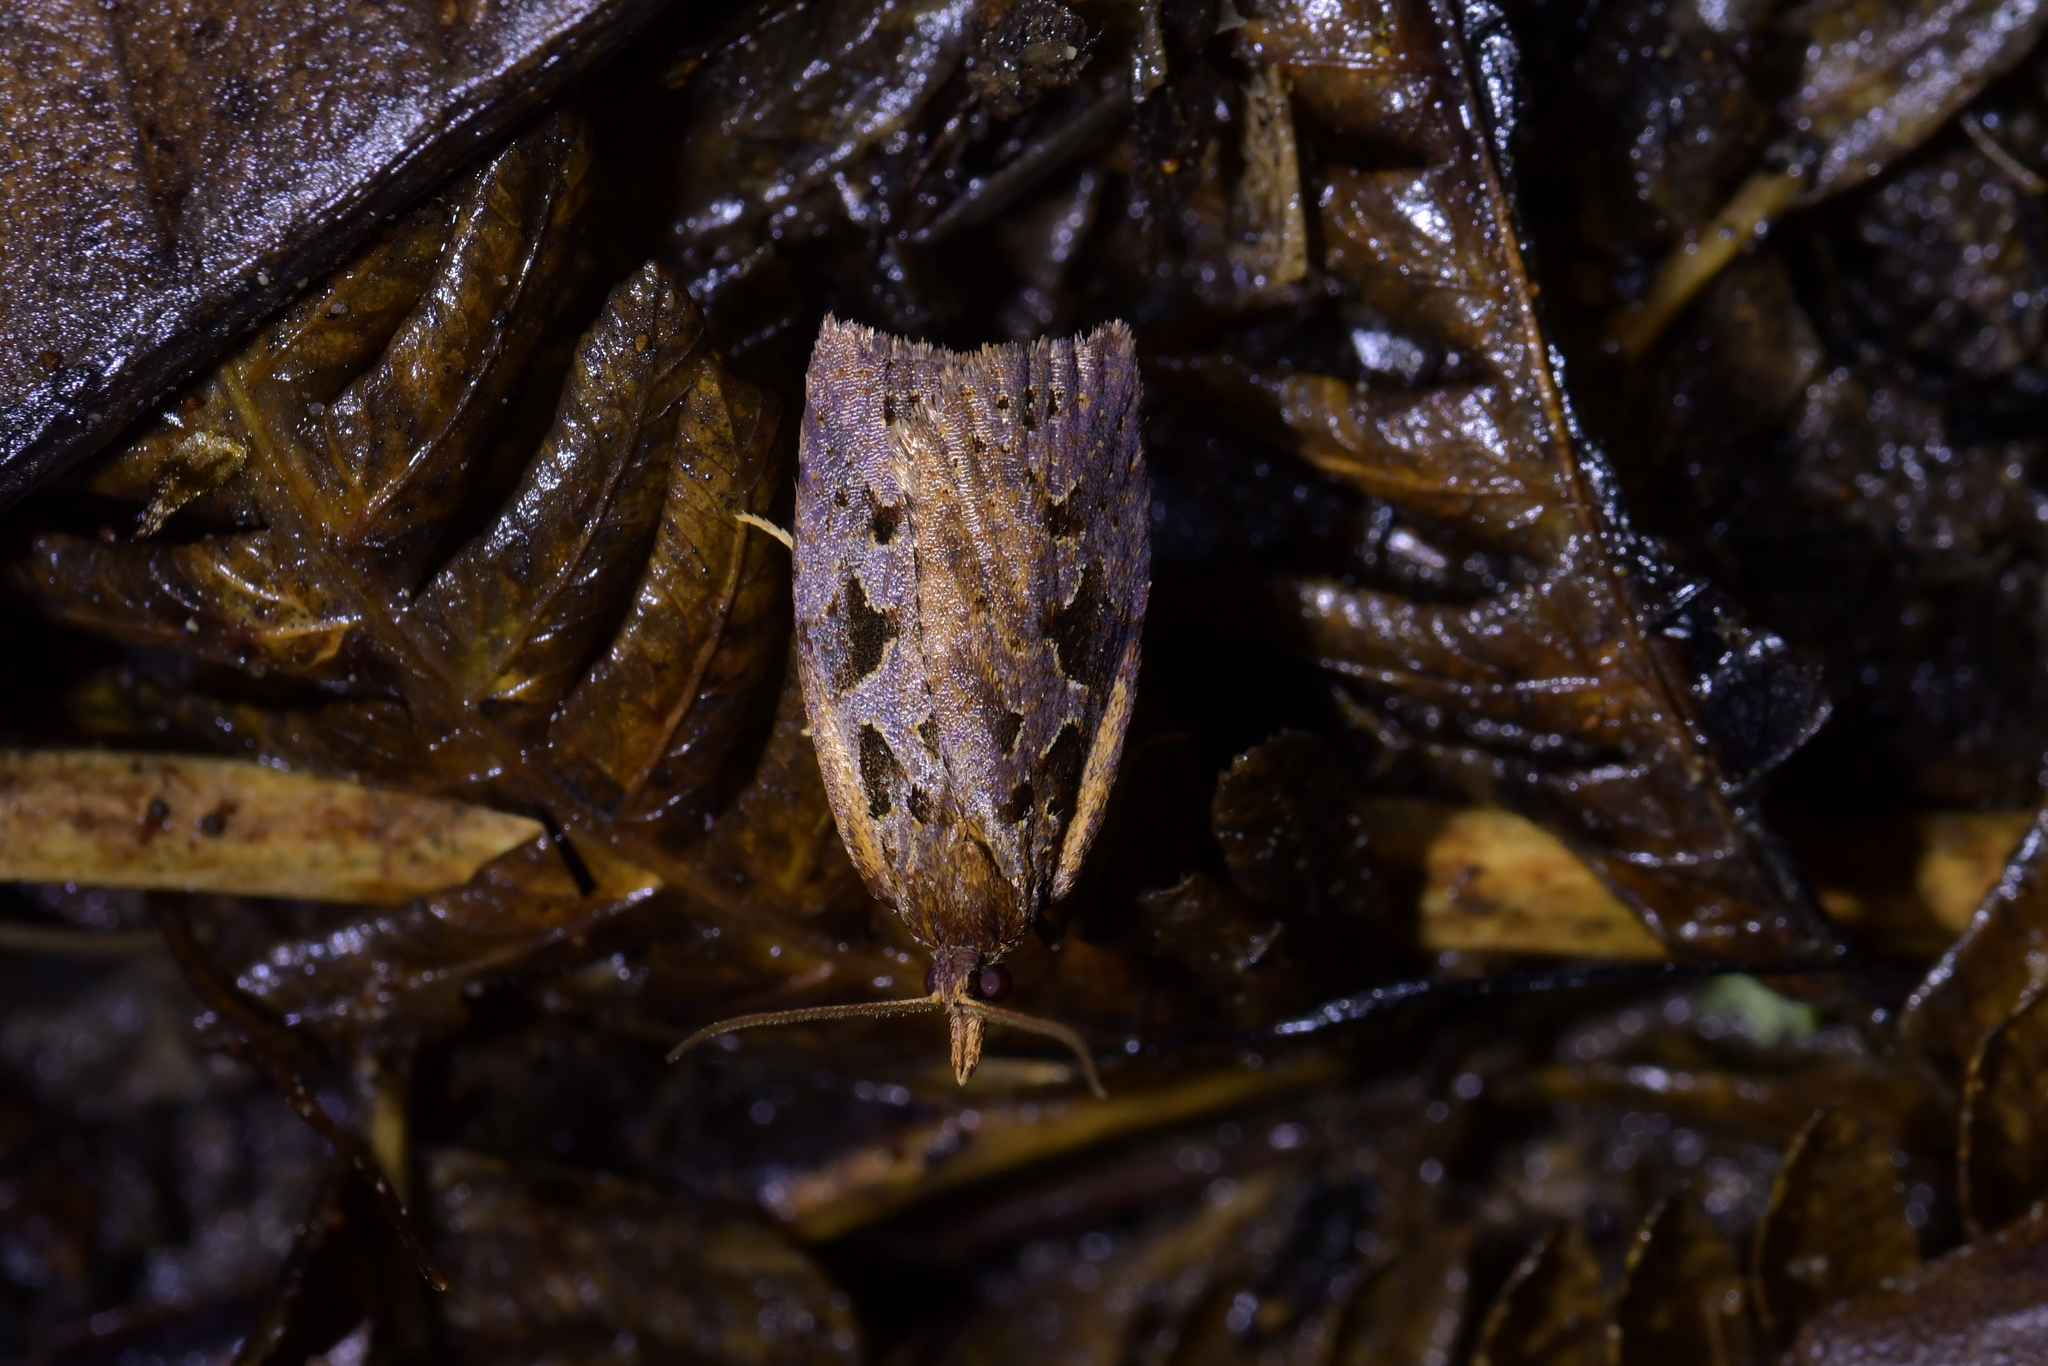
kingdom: Animalia
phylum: Arthropoda
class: Insecta
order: Lepidoptera
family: Tortricidae
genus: Ctenopseustis
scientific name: Ctenopseustis fraterna
